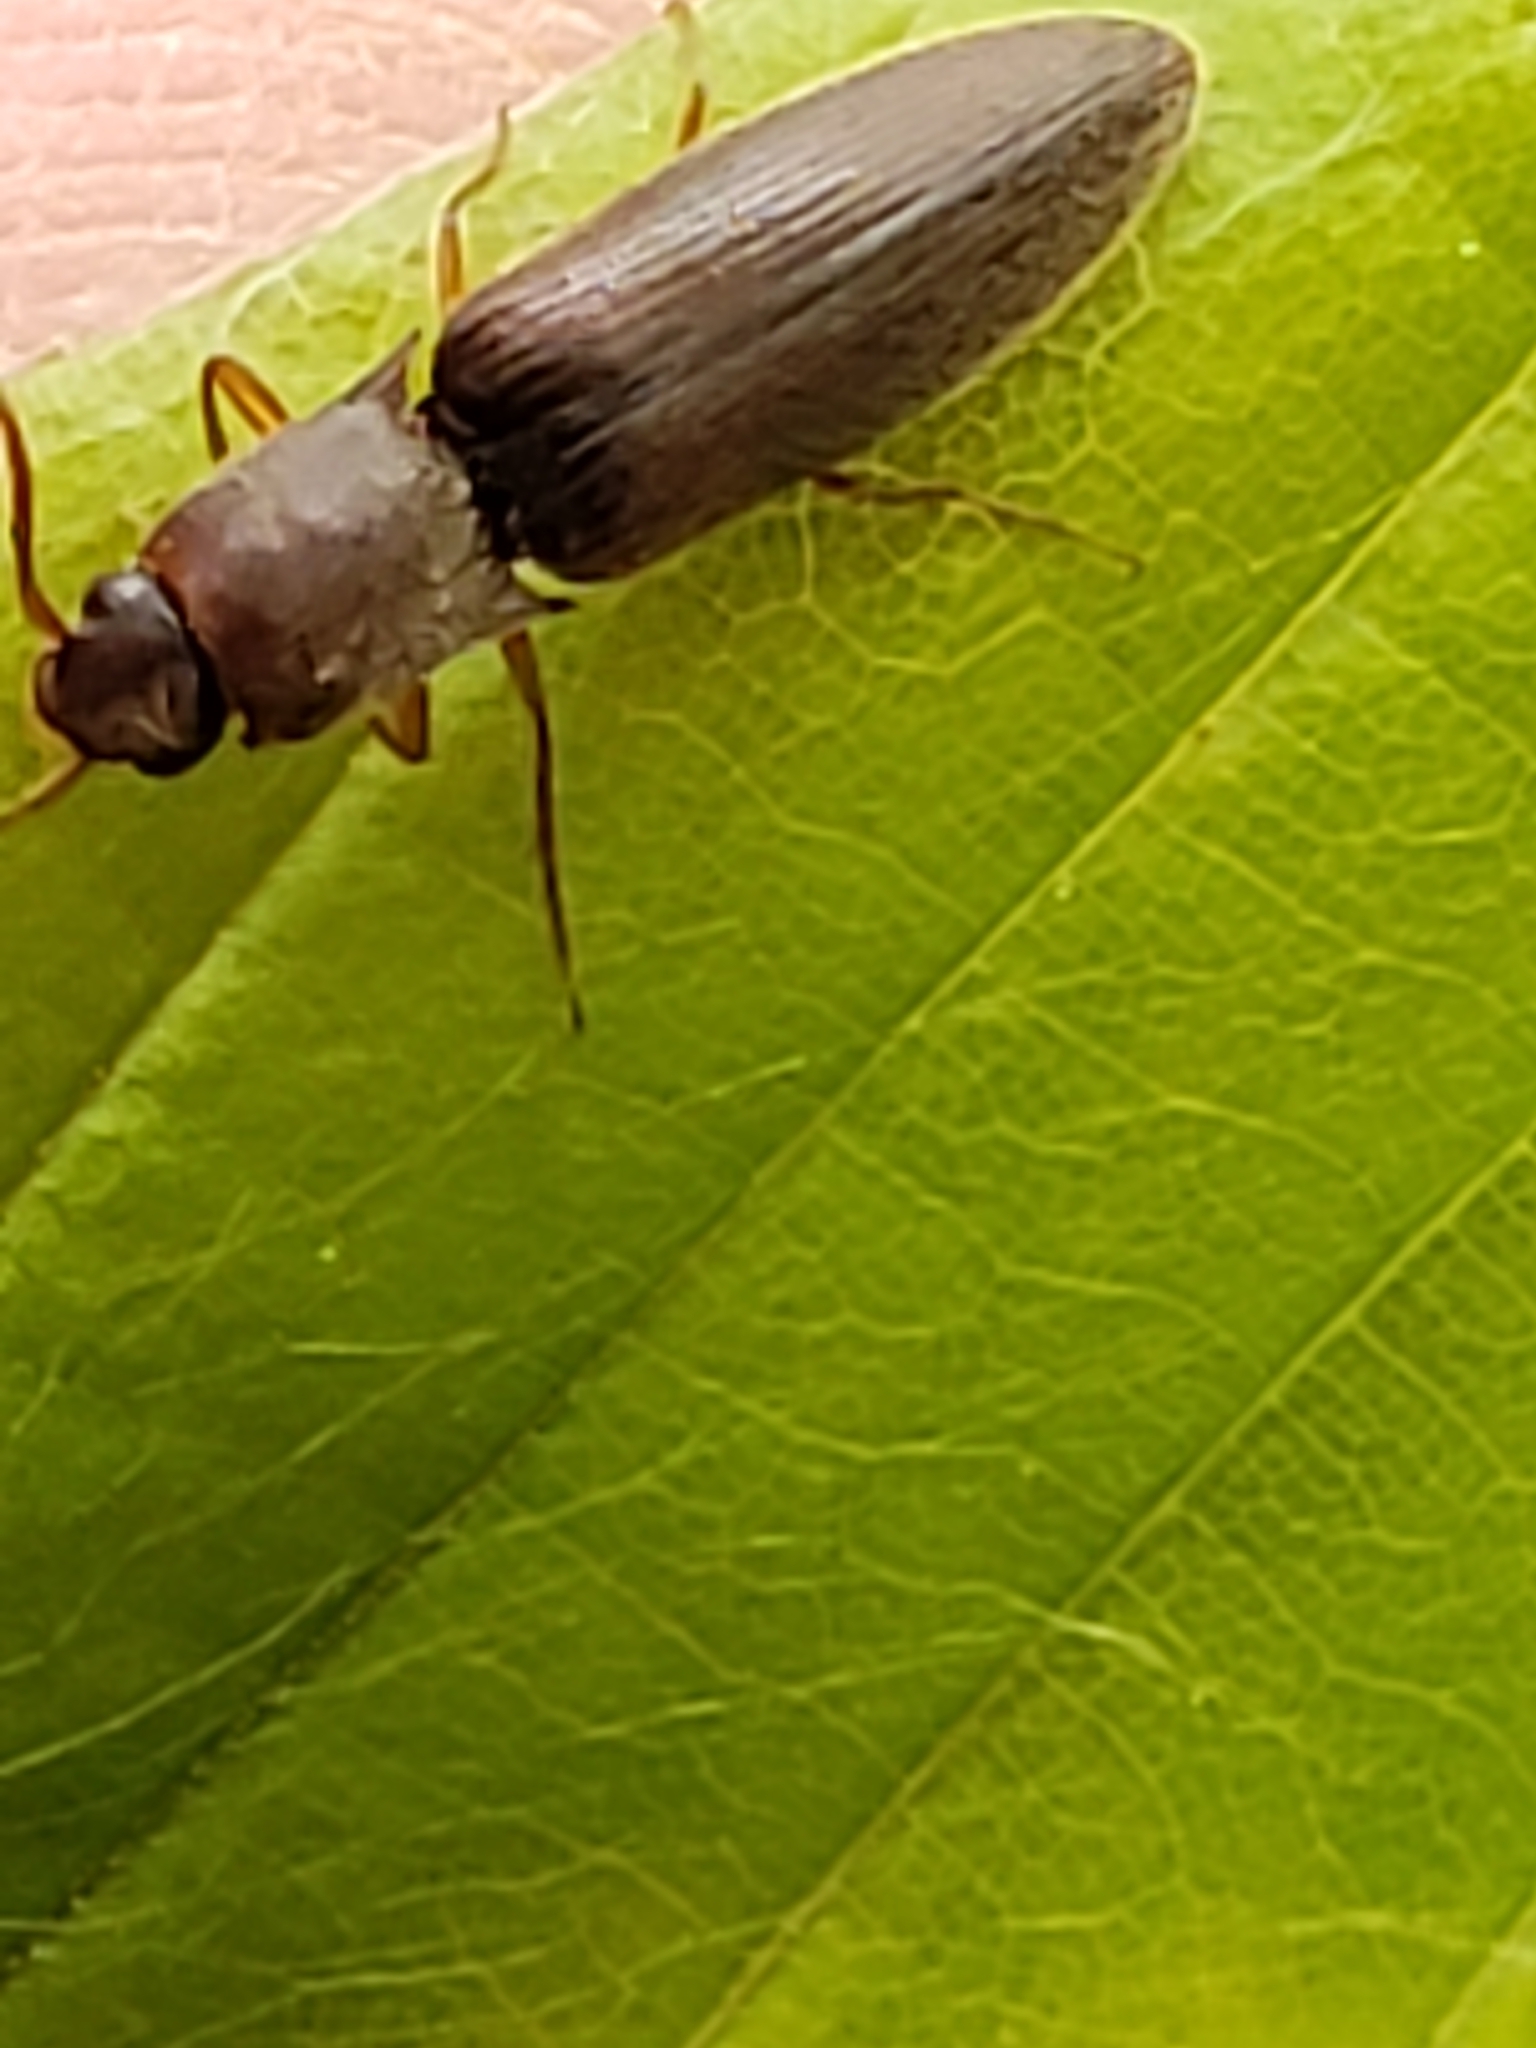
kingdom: Animalia
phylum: Arthropoda
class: Insecta
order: Coleoptera
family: Elateridae
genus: Agriotes
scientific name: Agriotes oblongicollis
